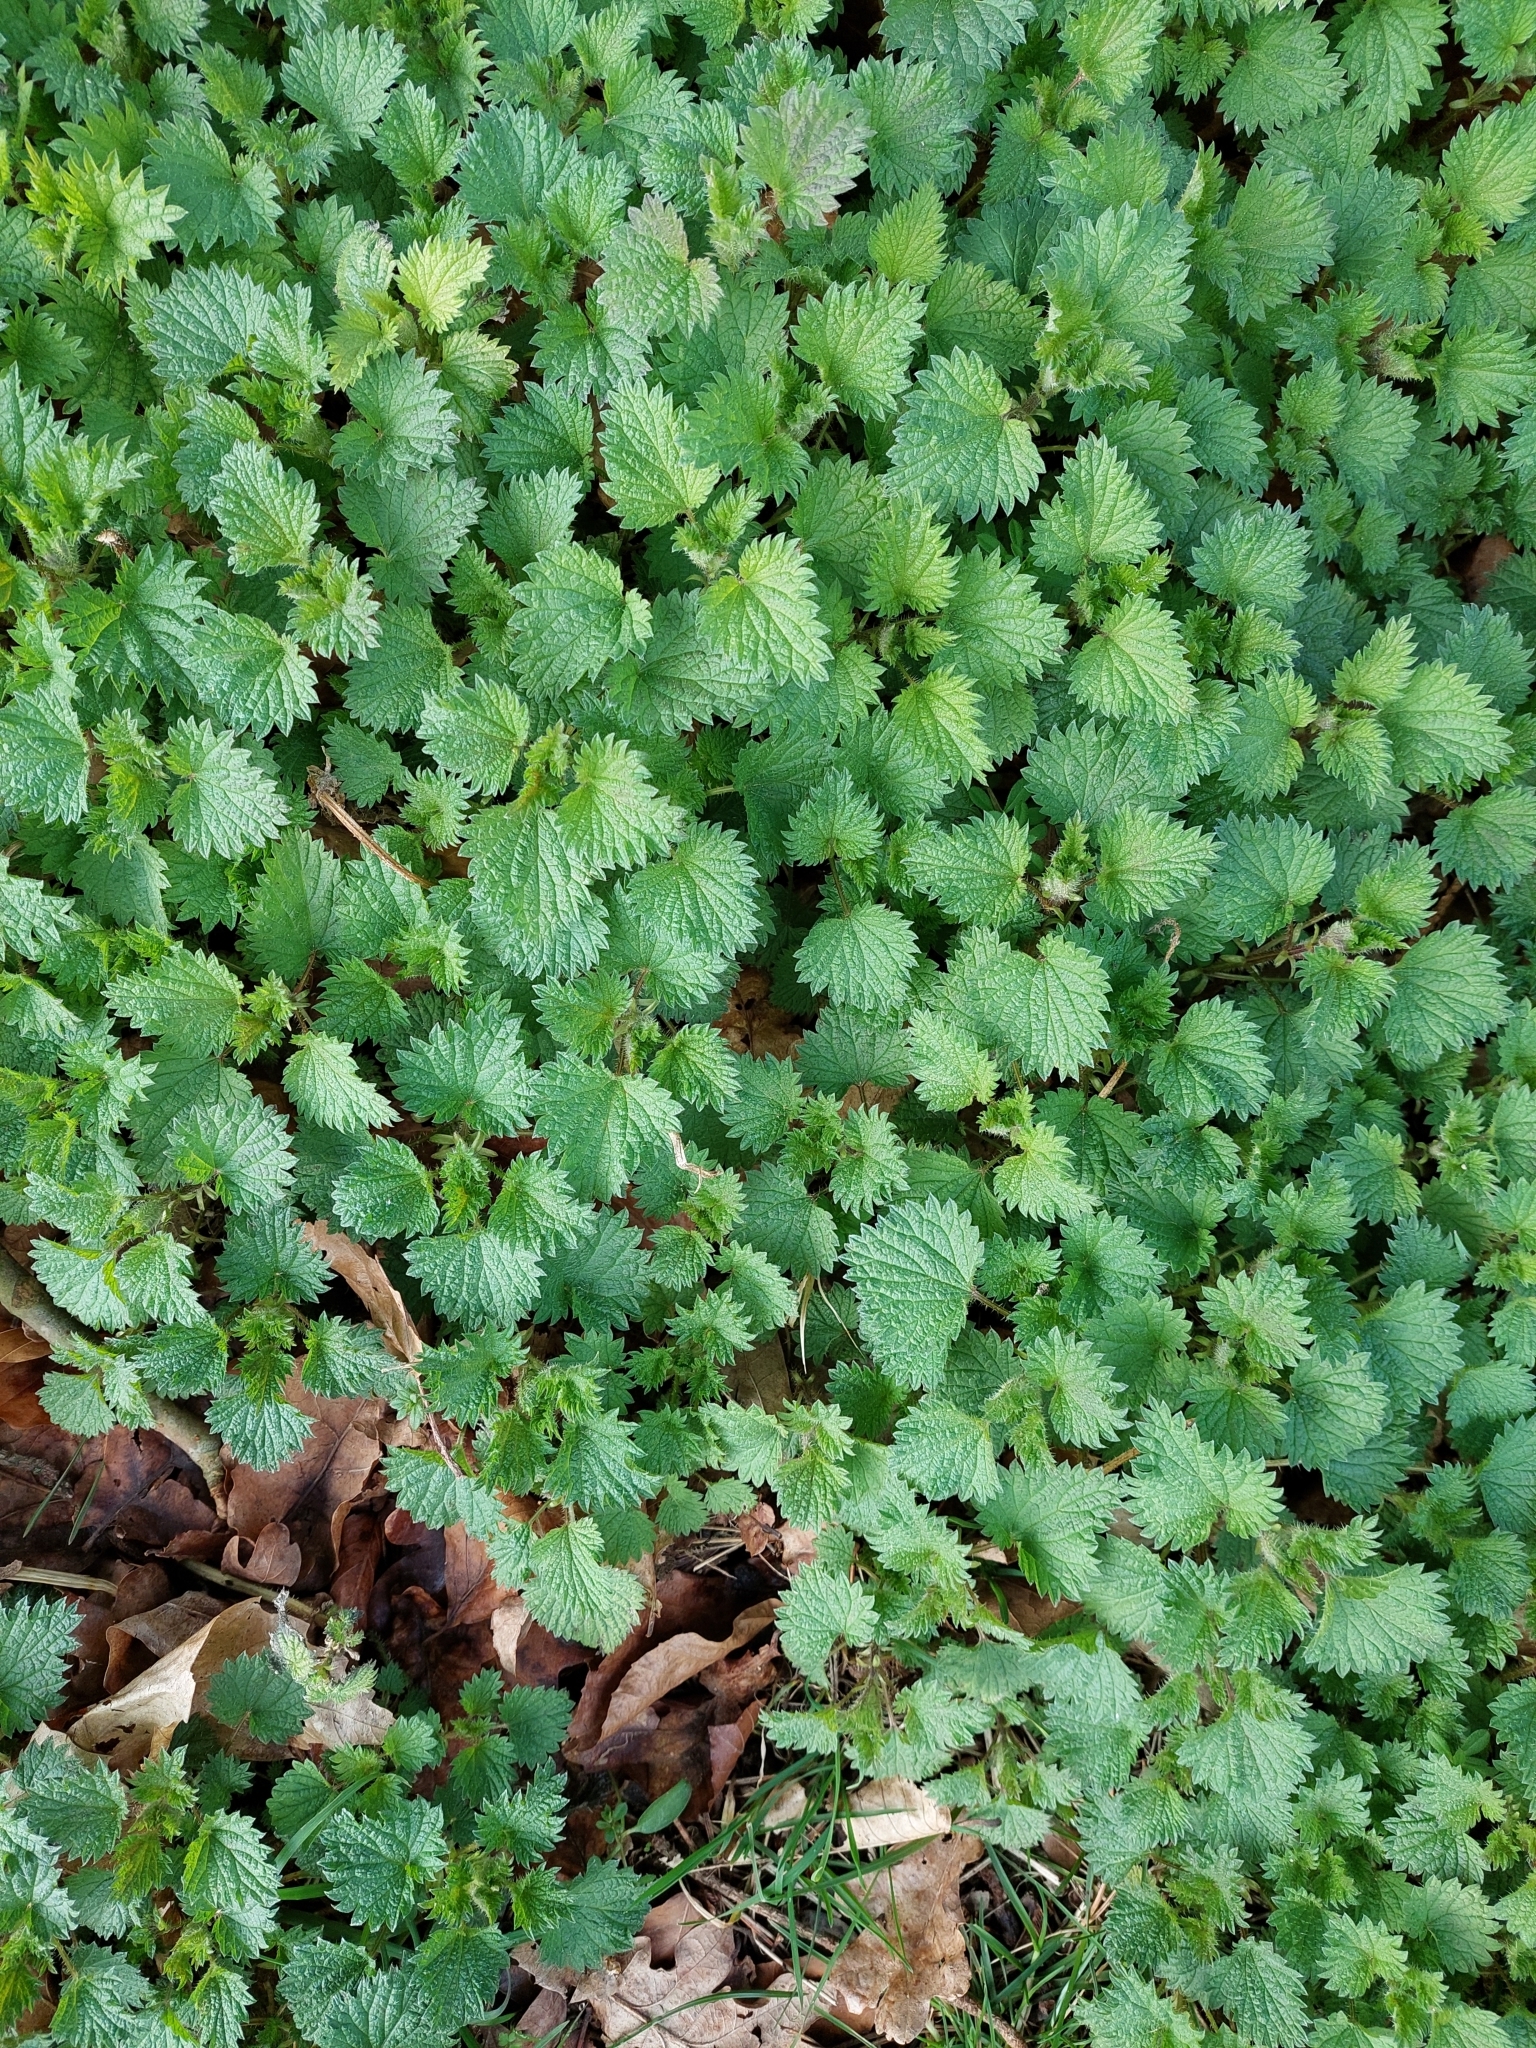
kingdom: Plantae
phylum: Tracheophyta
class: Magnoliopsida
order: Rosales
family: Urticaceae
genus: Urtica
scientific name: Urtica dioica
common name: Common nettle
